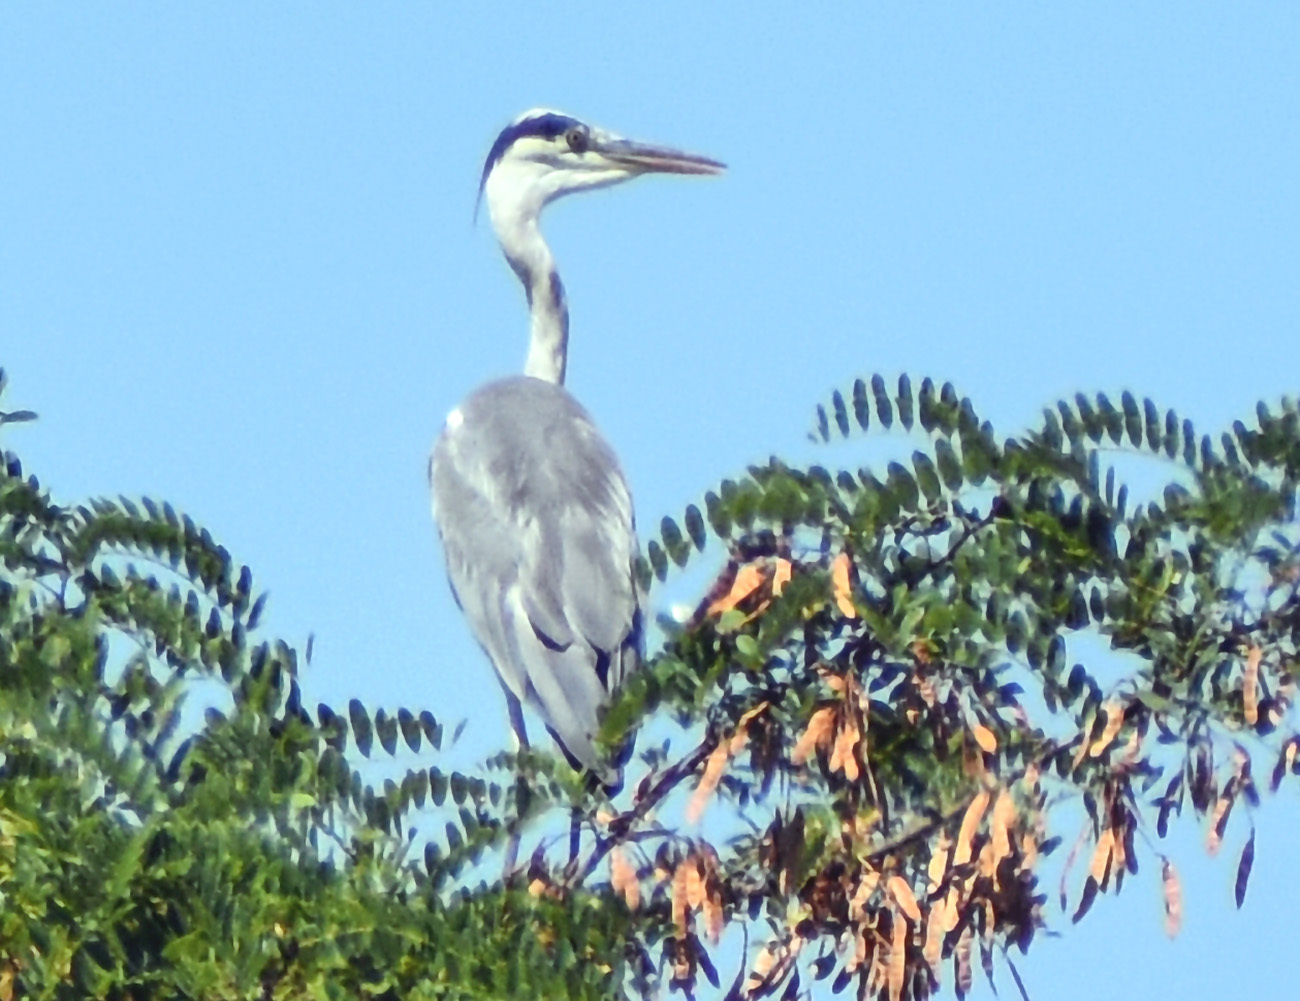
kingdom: Animalia
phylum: Chordata
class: Aves
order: Pelecaniformes
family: Ardeidae
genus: Ardea
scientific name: Ardea cinerea
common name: Grey heron
